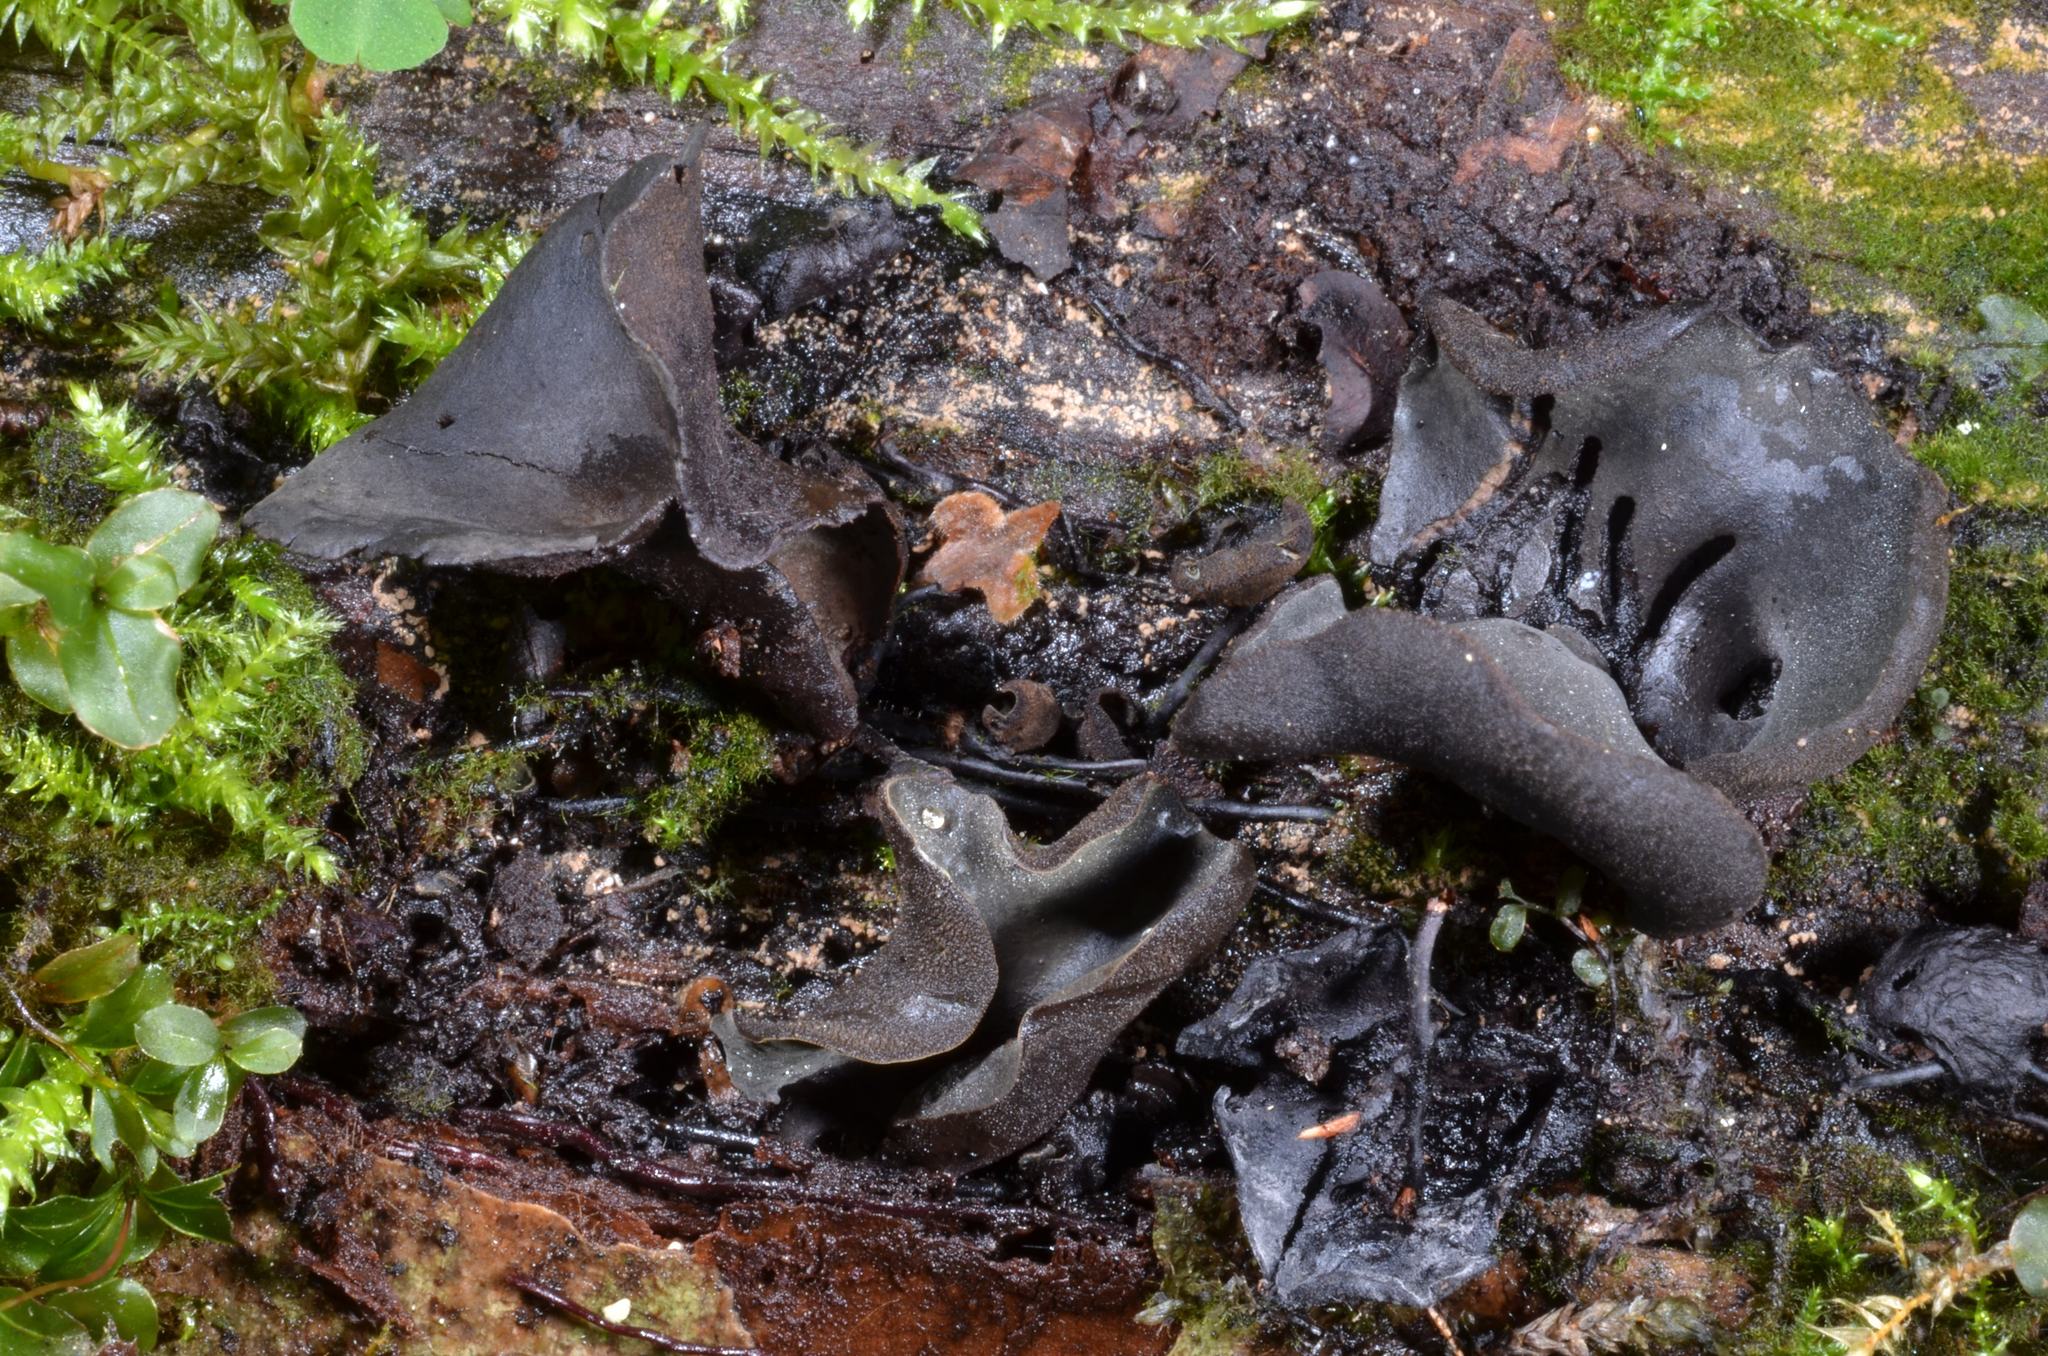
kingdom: Fungi
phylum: Ascomycota
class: Leotiomycetes
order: Helotiales
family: Cordieritidaceae
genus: Diplocarpa
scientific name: Diplocarpa irregularis
